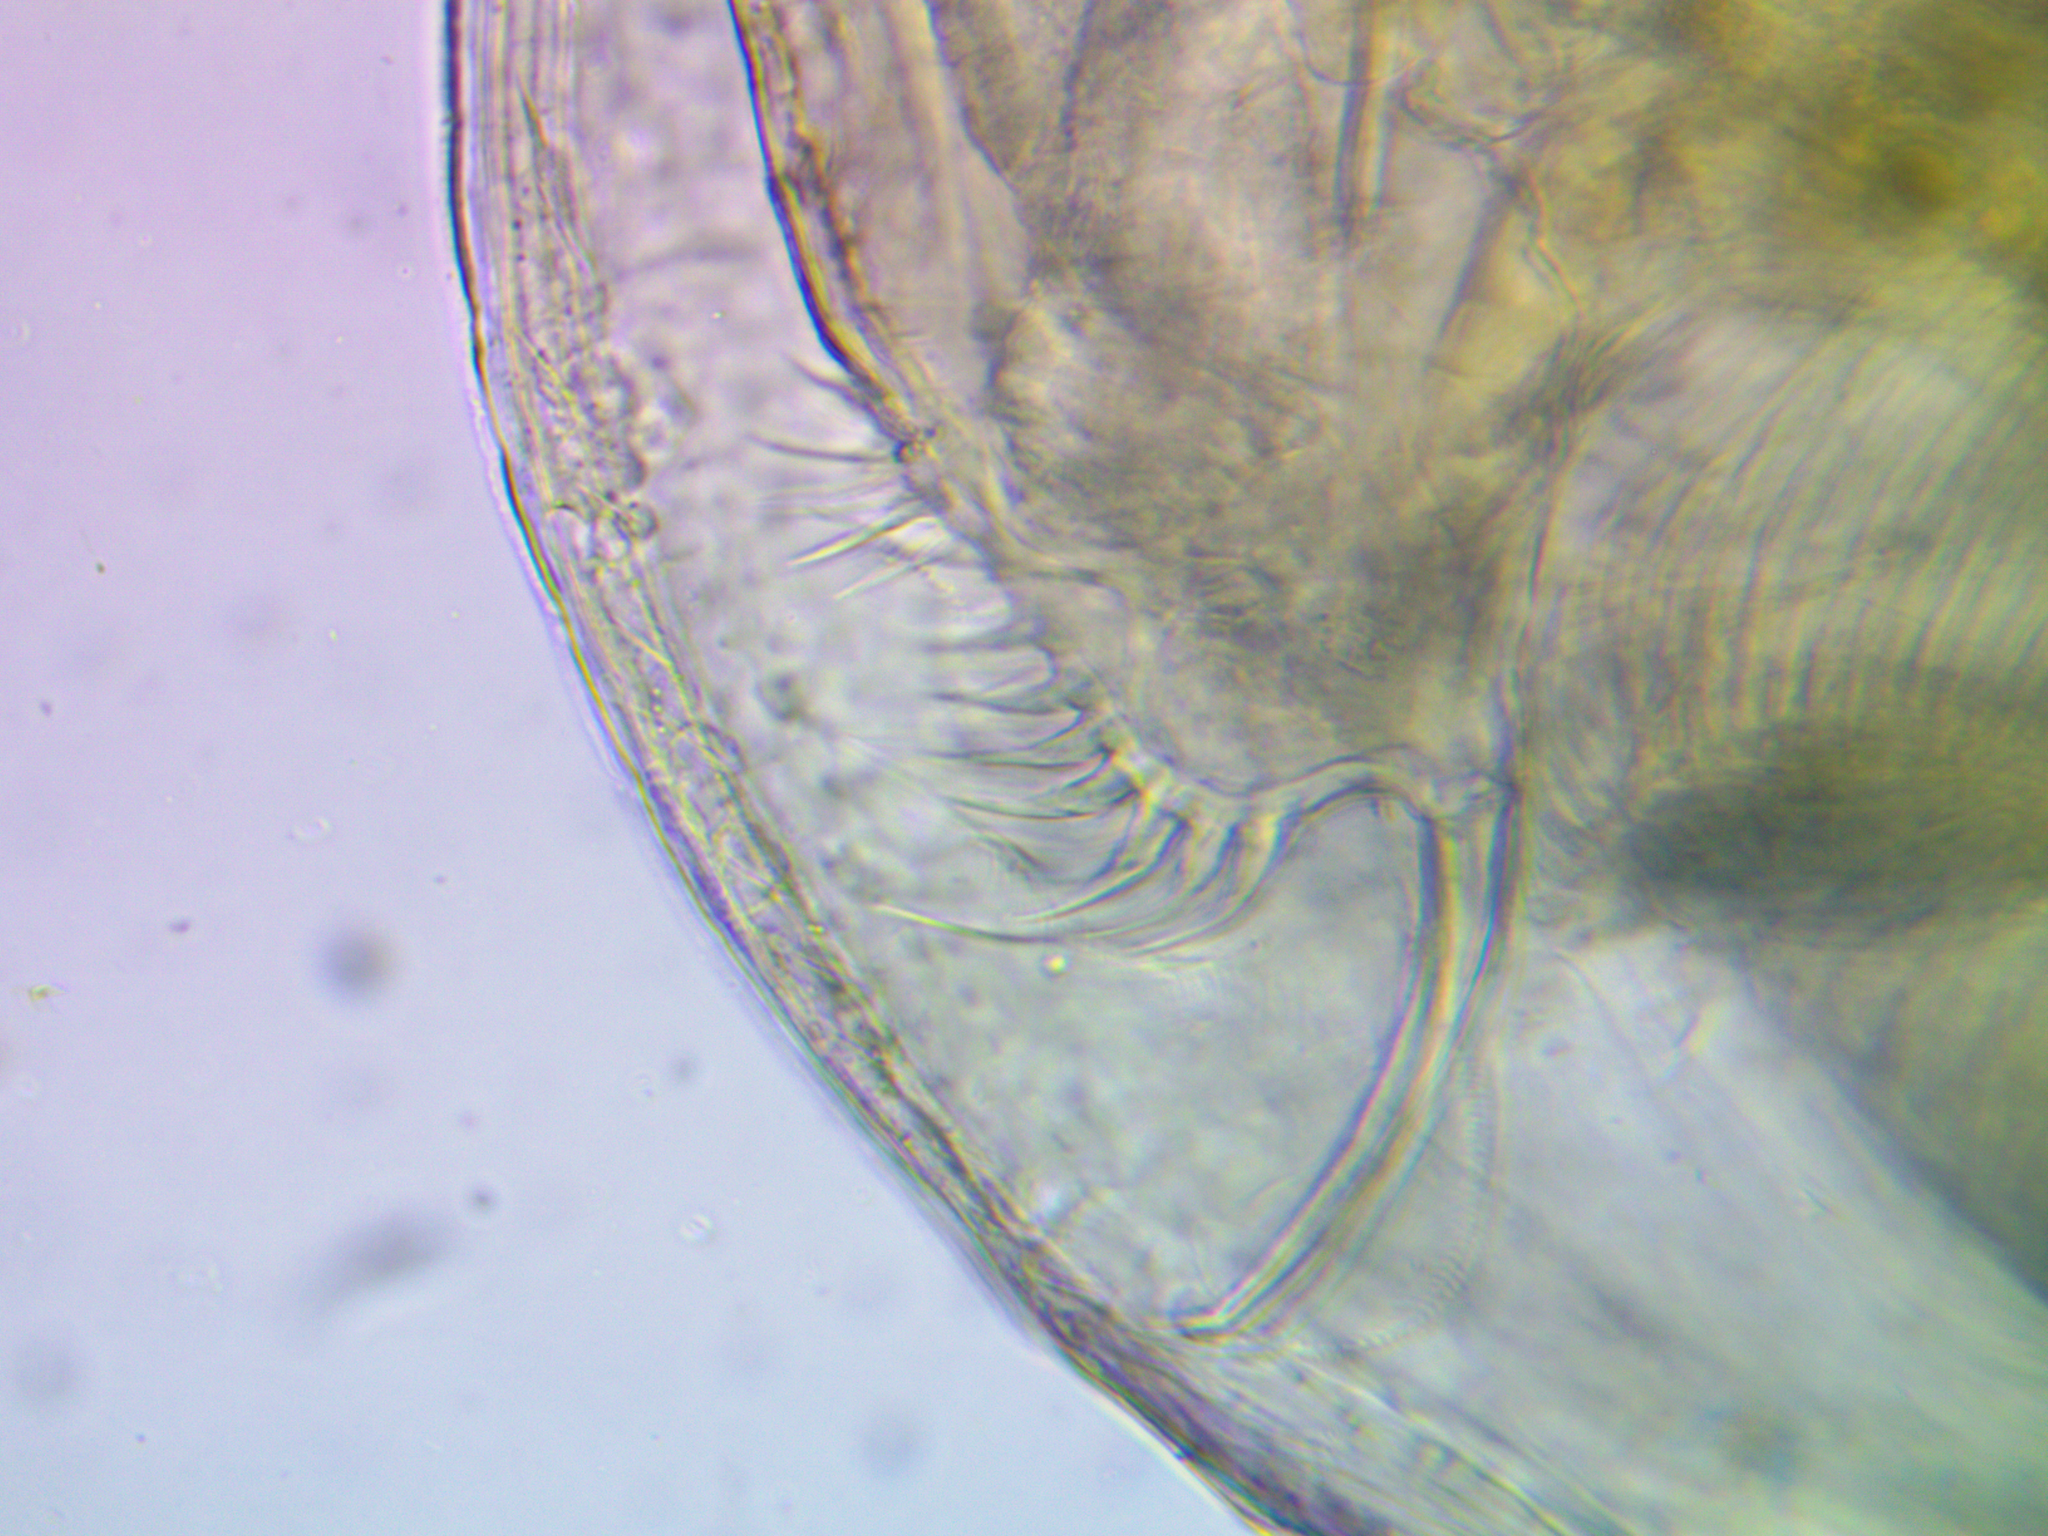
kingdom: Animalia
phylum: Arthropoda
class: Branchiopoda
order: Diplostraca
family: Daphniidae
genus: Ceriodaphnia
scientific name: Ceriodaphnia pulchella
